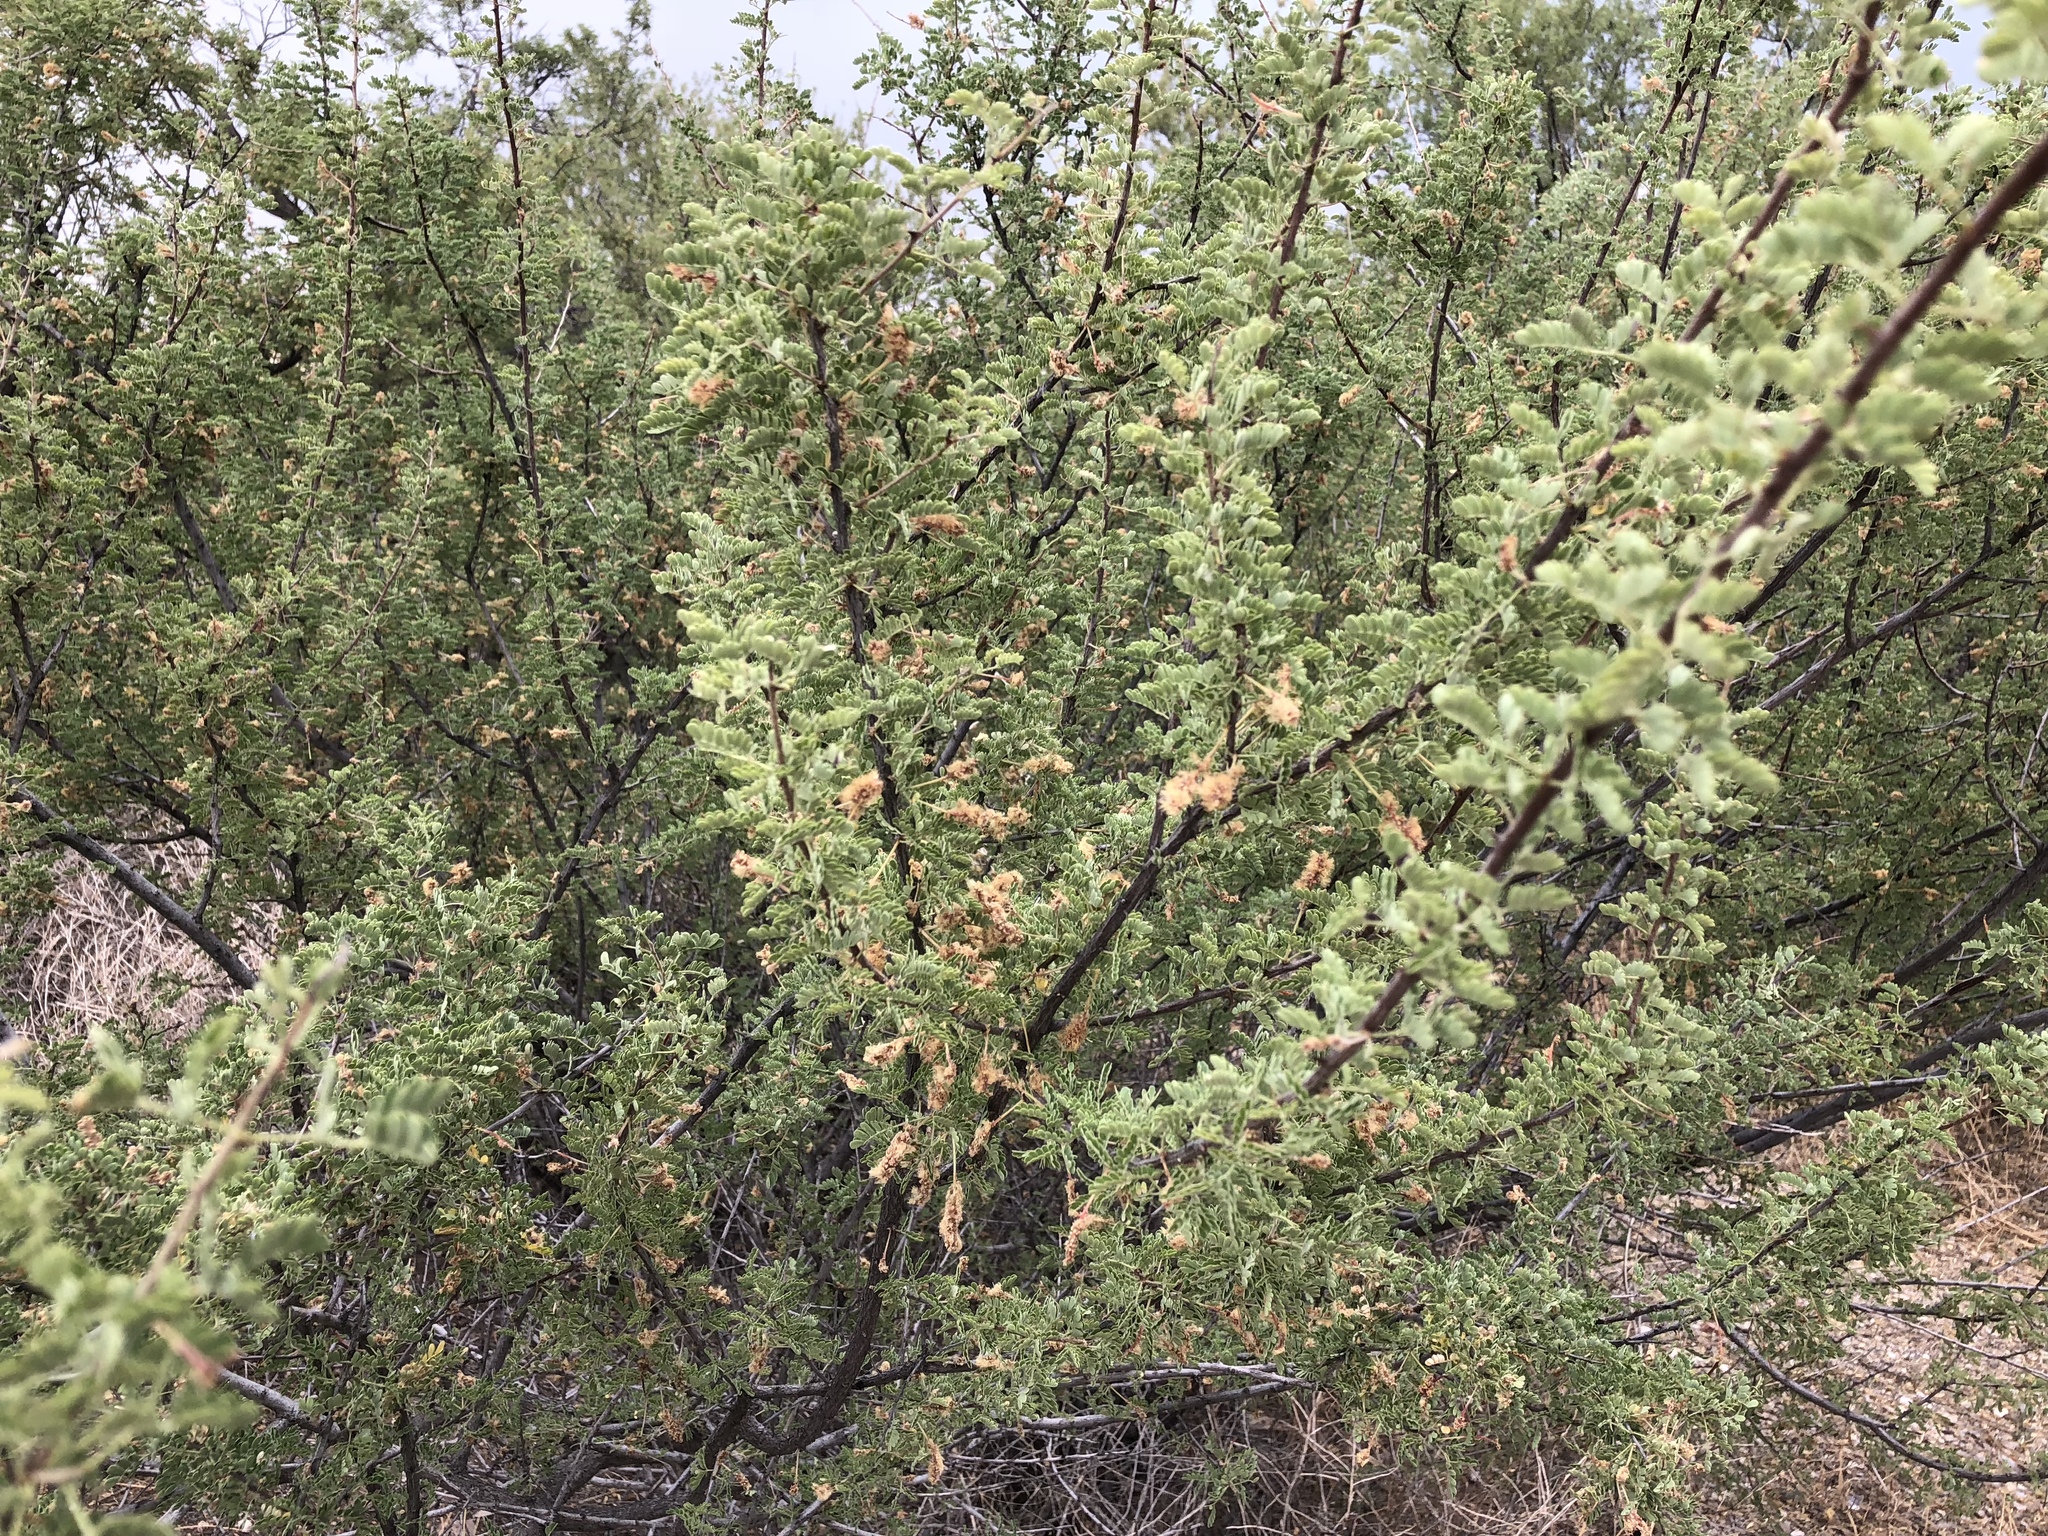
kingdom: Plantae
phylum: Tracheophyta
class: Magnoliopsida
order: Fabales
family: Fabaceae
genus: Senegalia
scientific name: Senegalia greggii
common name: Texas-mimosa
